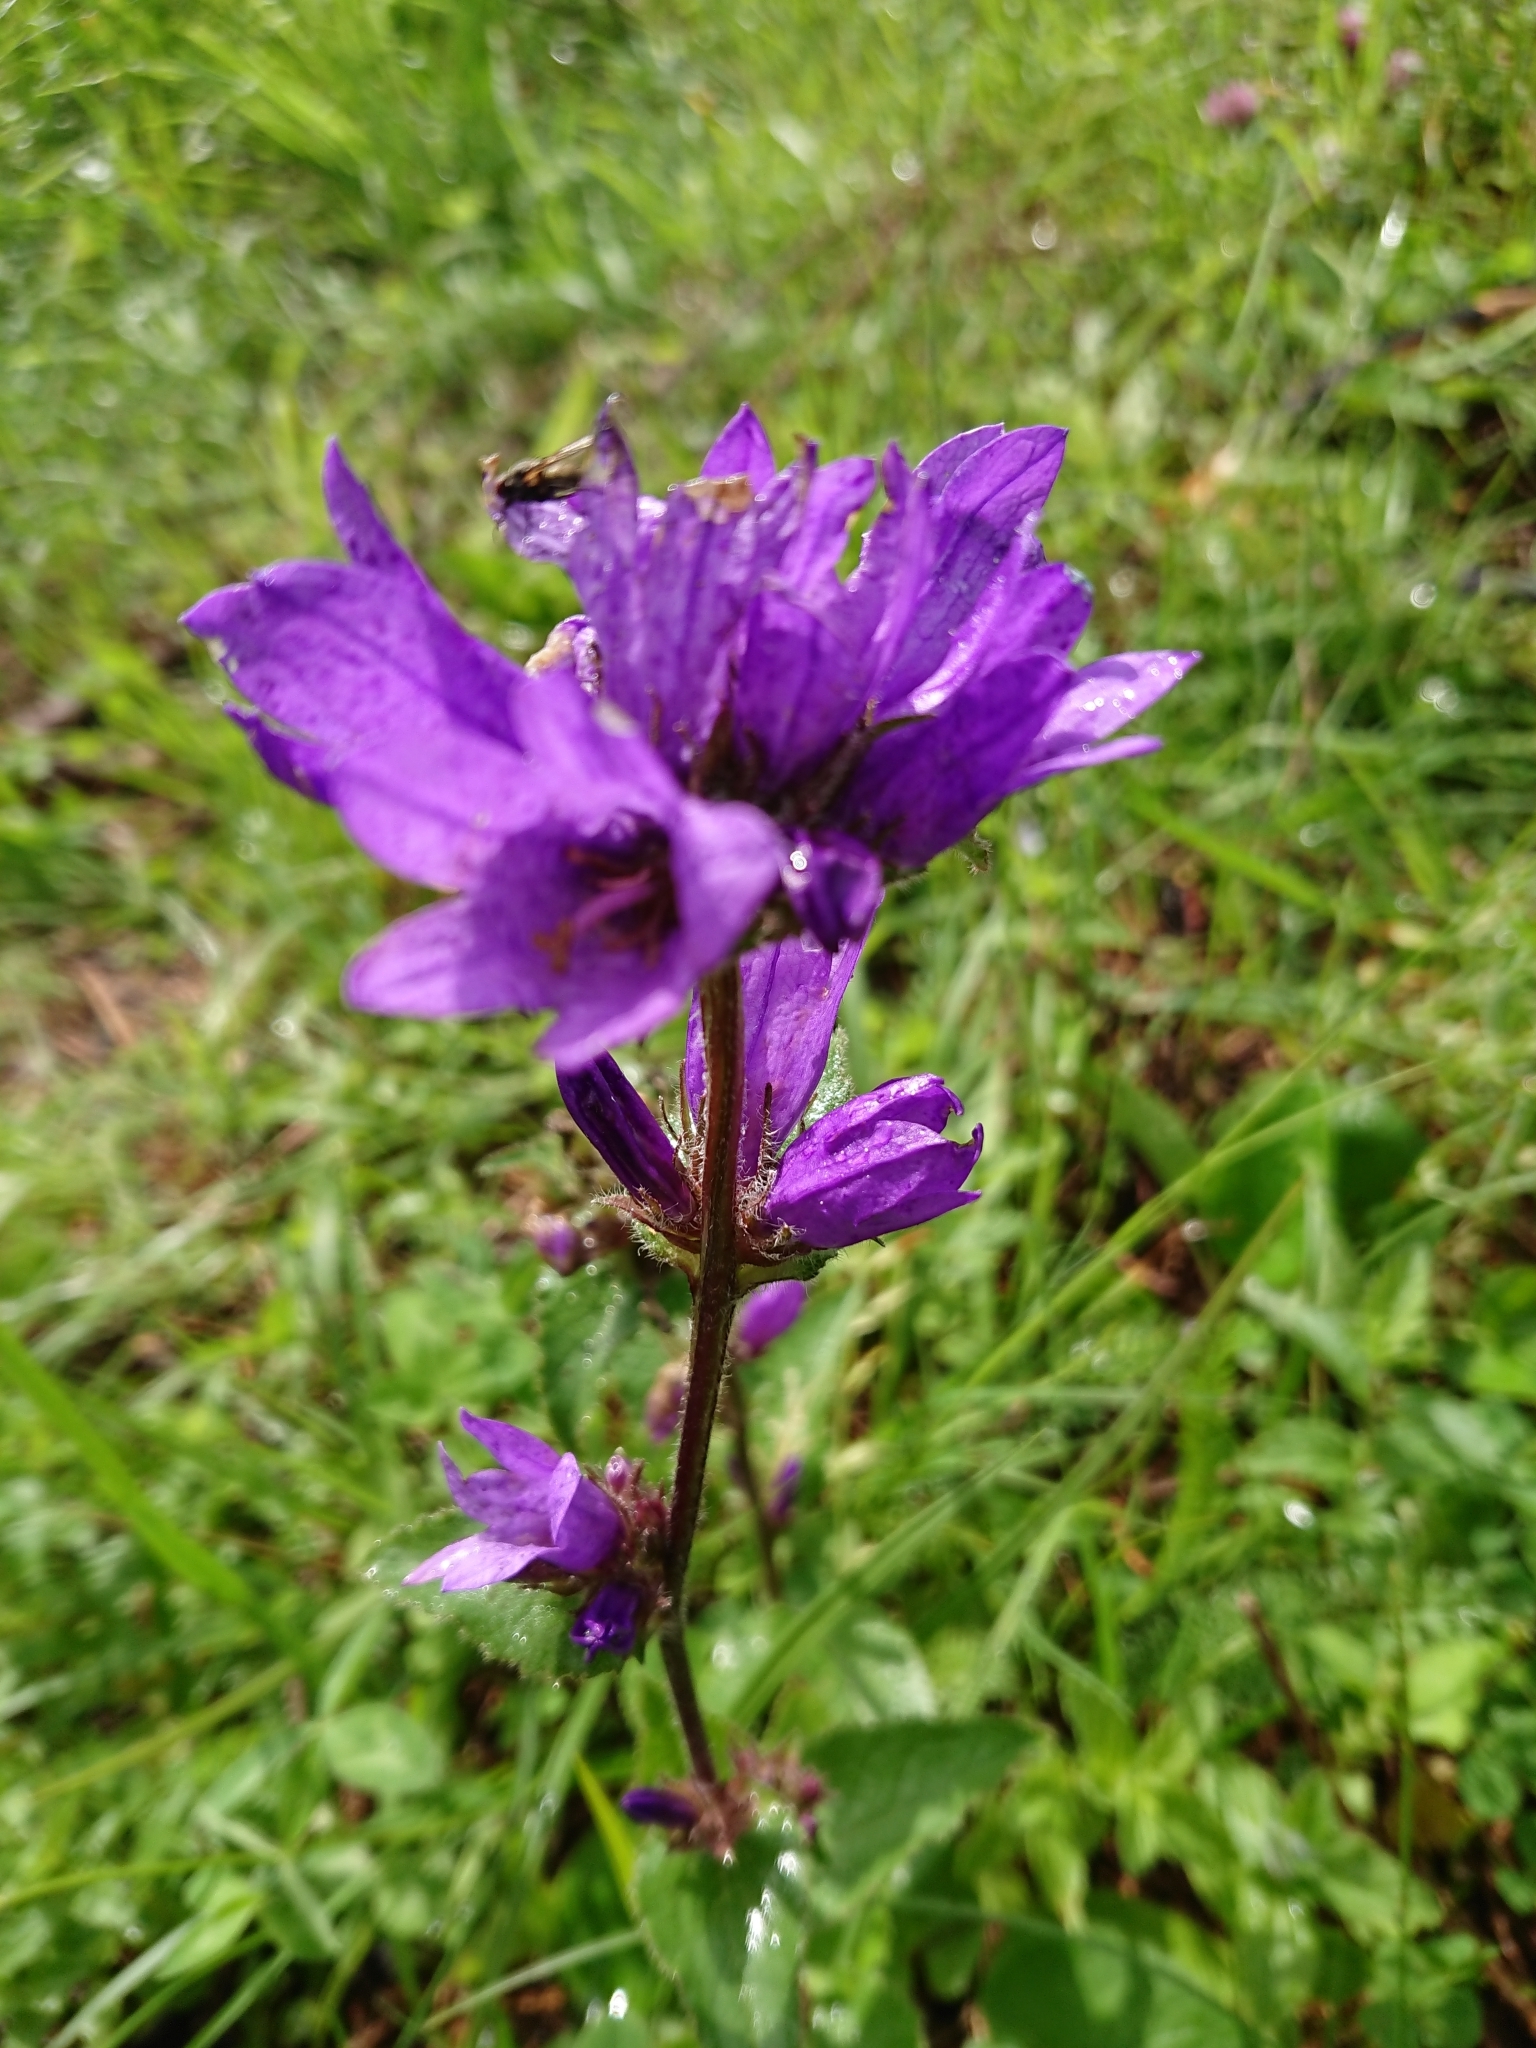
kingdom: Plantae
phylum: Tracheophyta
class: Magnoliopsida
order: Asterales
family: Campanulaceae
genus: Campanula
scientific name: Campanula glomerata
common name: Clustered bellflower
